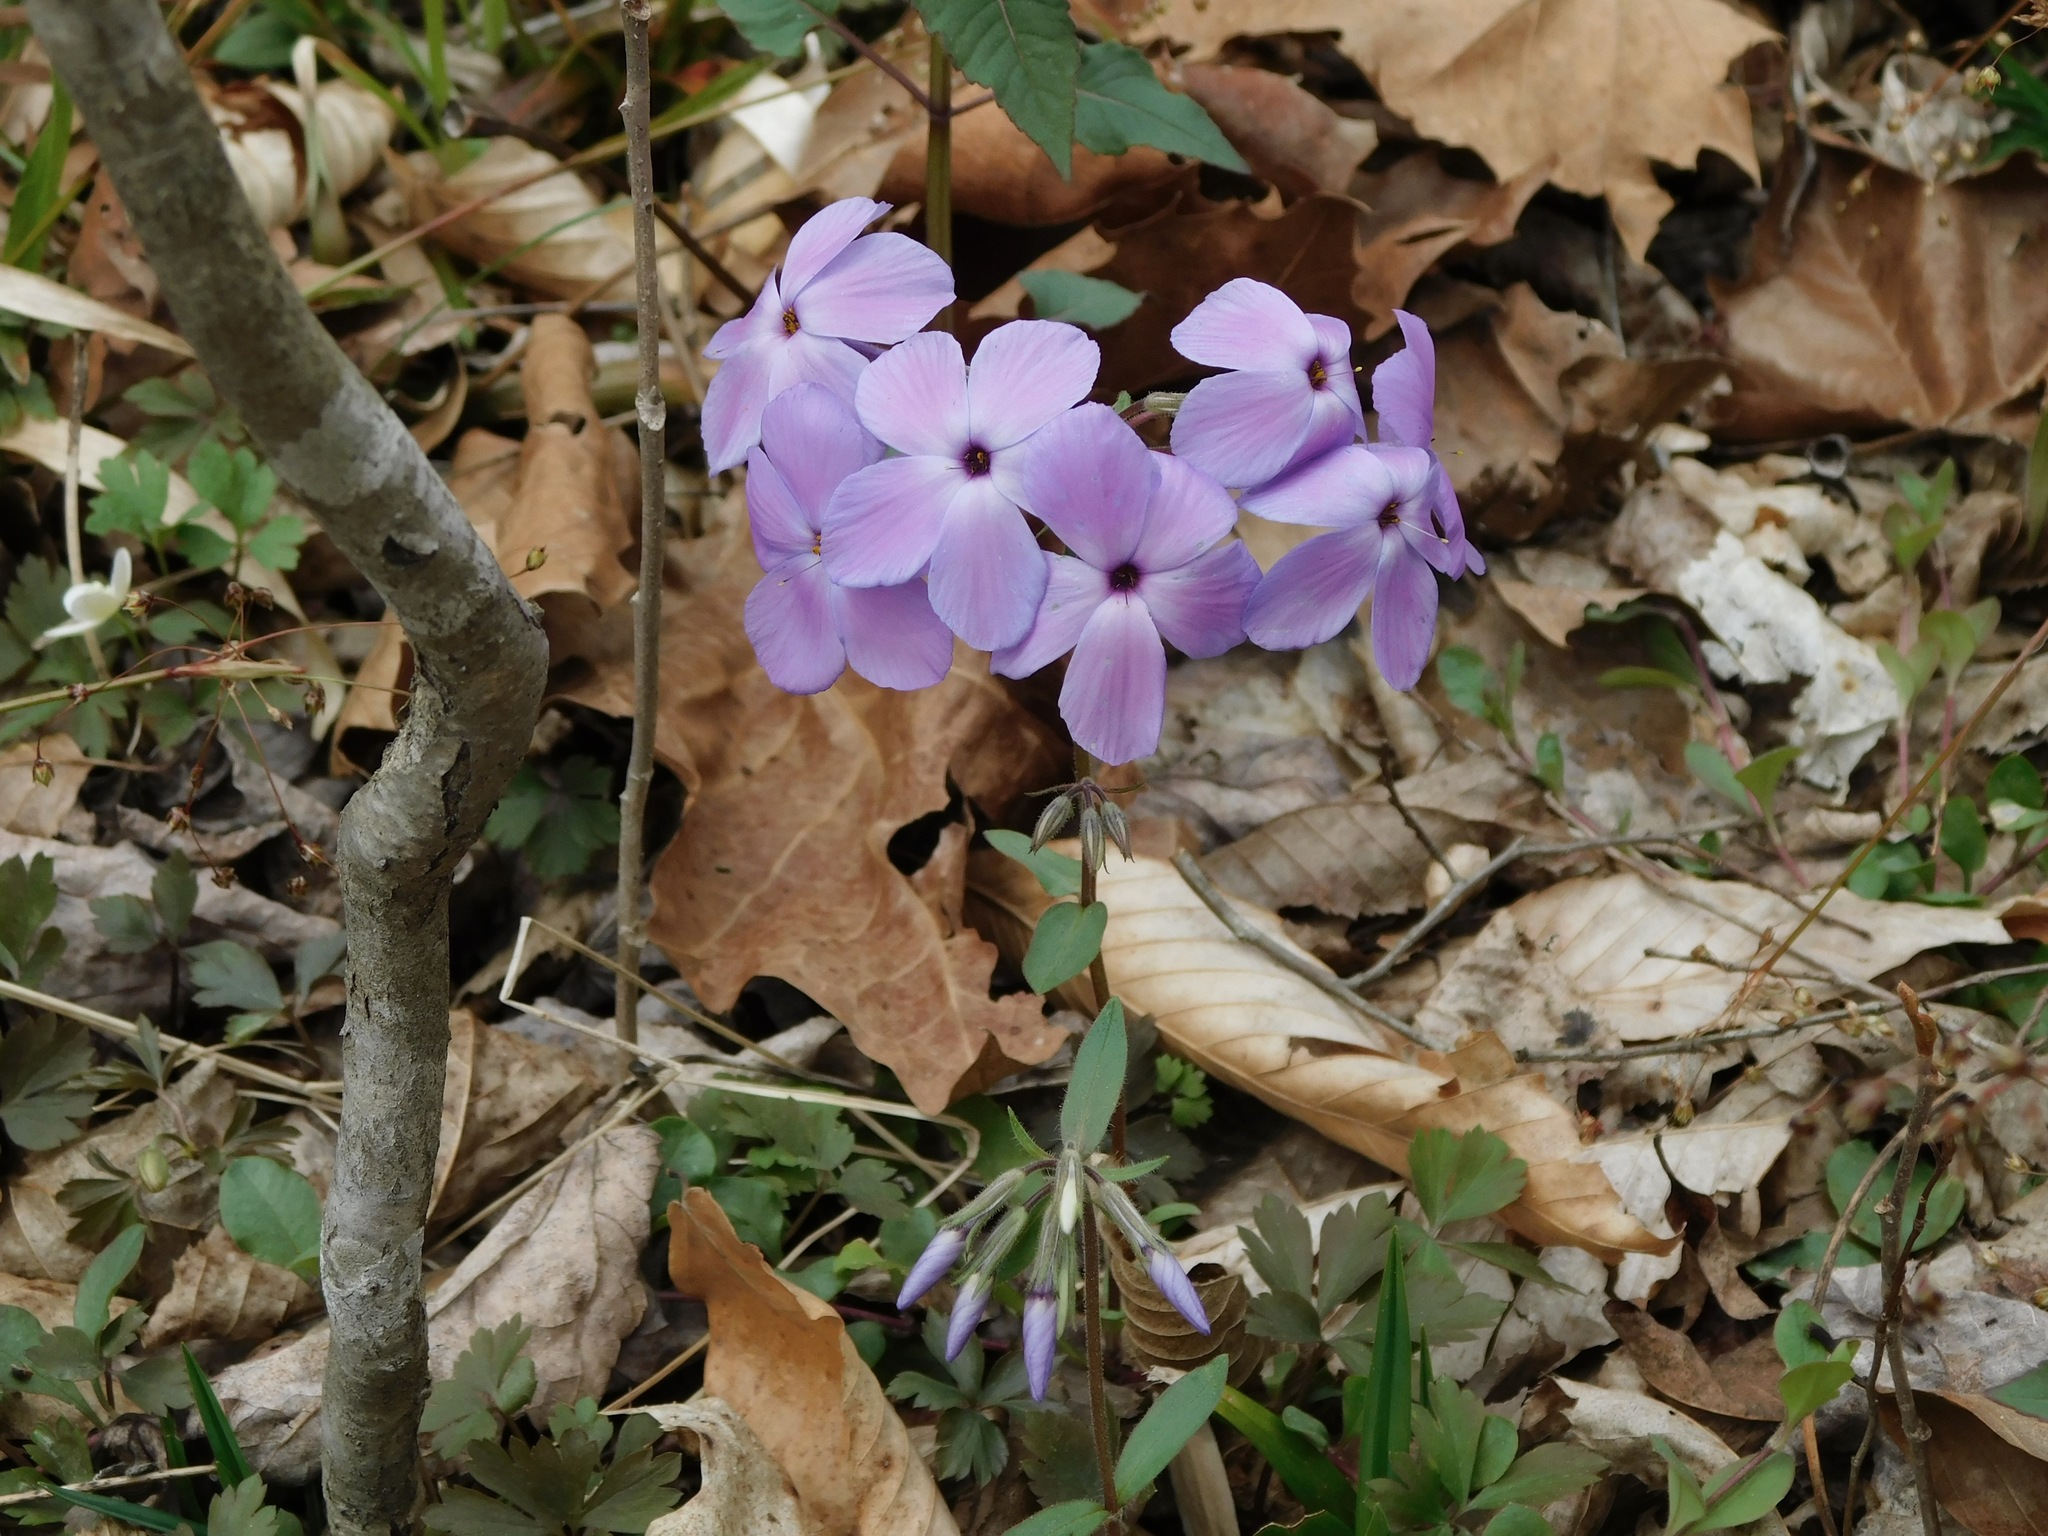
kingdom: Plantae
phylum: Tracheophyta
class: Magnoliopsida
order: Ericales
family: Polemoniaceae
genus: Phlox
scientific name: Phlox stolonifera
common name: Creeping phlox
